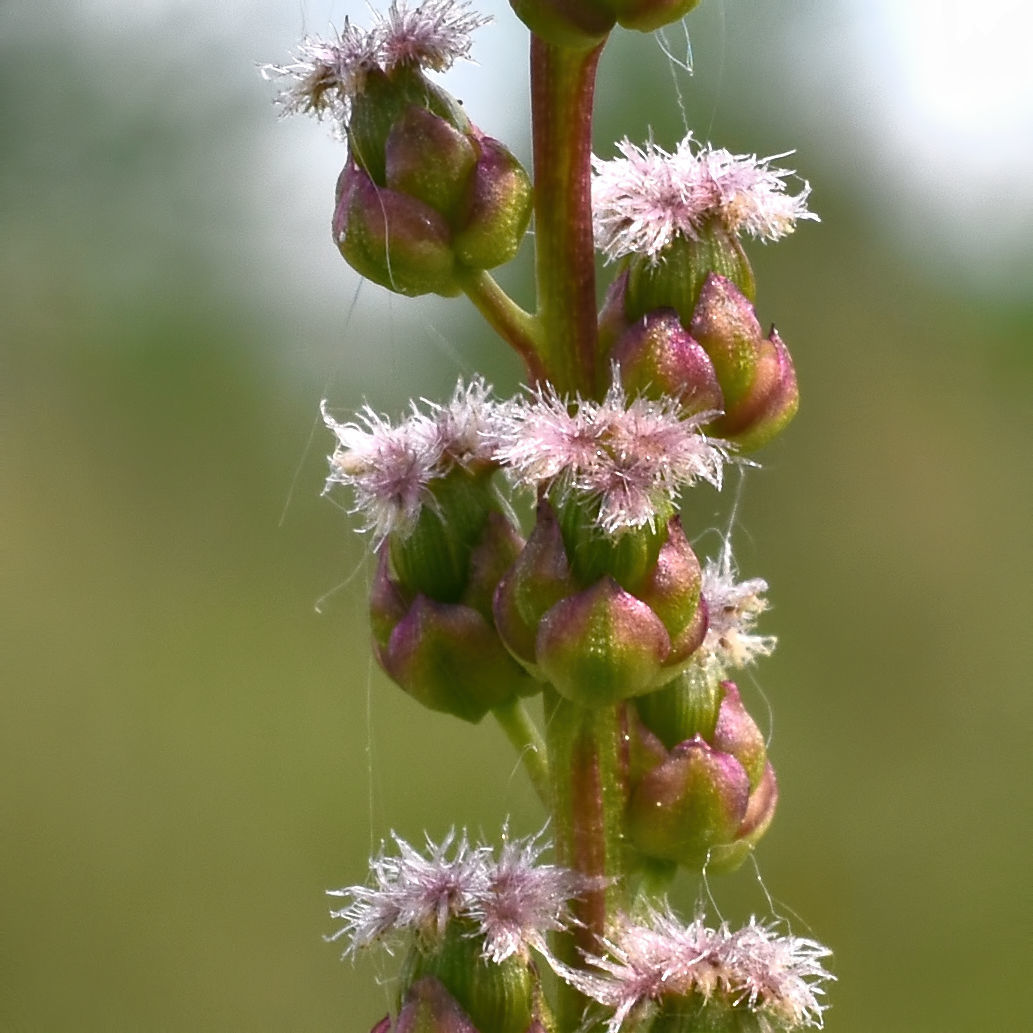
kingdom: Plantae
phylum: Tracheophyta
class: Liliopsida
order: Alismatales
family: Juncaginaceae
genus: Triglochin
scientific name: Triglochin maritima
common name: Sea arrowgrass
